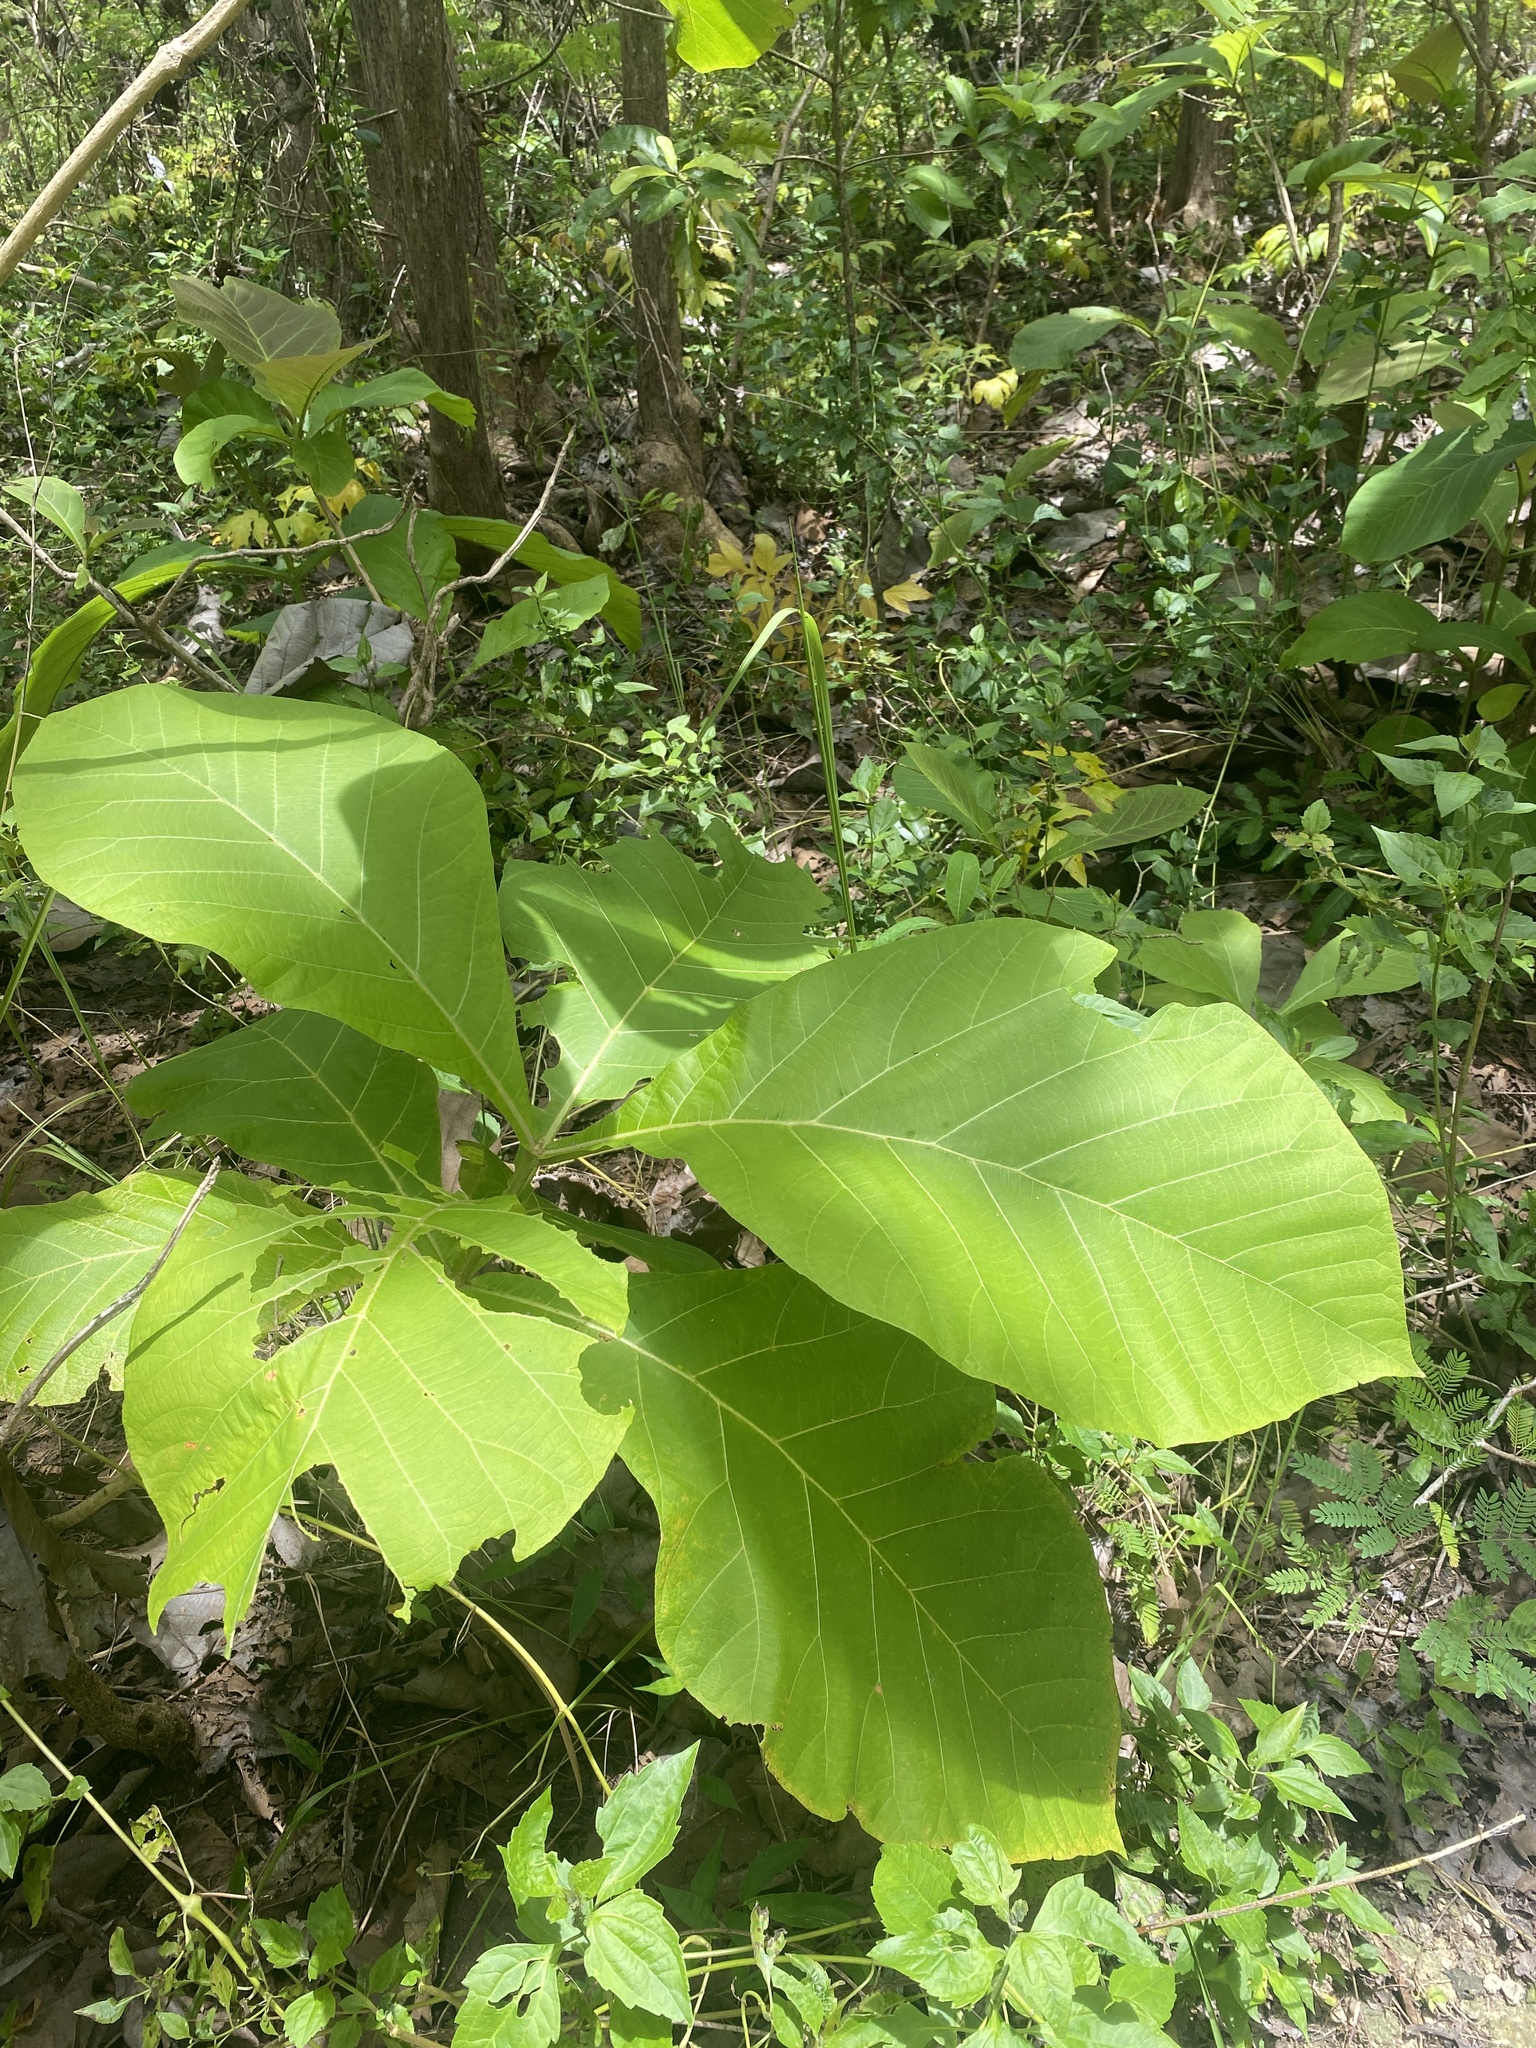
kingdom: Plantae
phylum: Tracheophyta
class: Magnoliopsida
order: Lamiales
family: Lamiaceae
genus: Tectona
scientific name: Tectona grandis
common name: Teak
